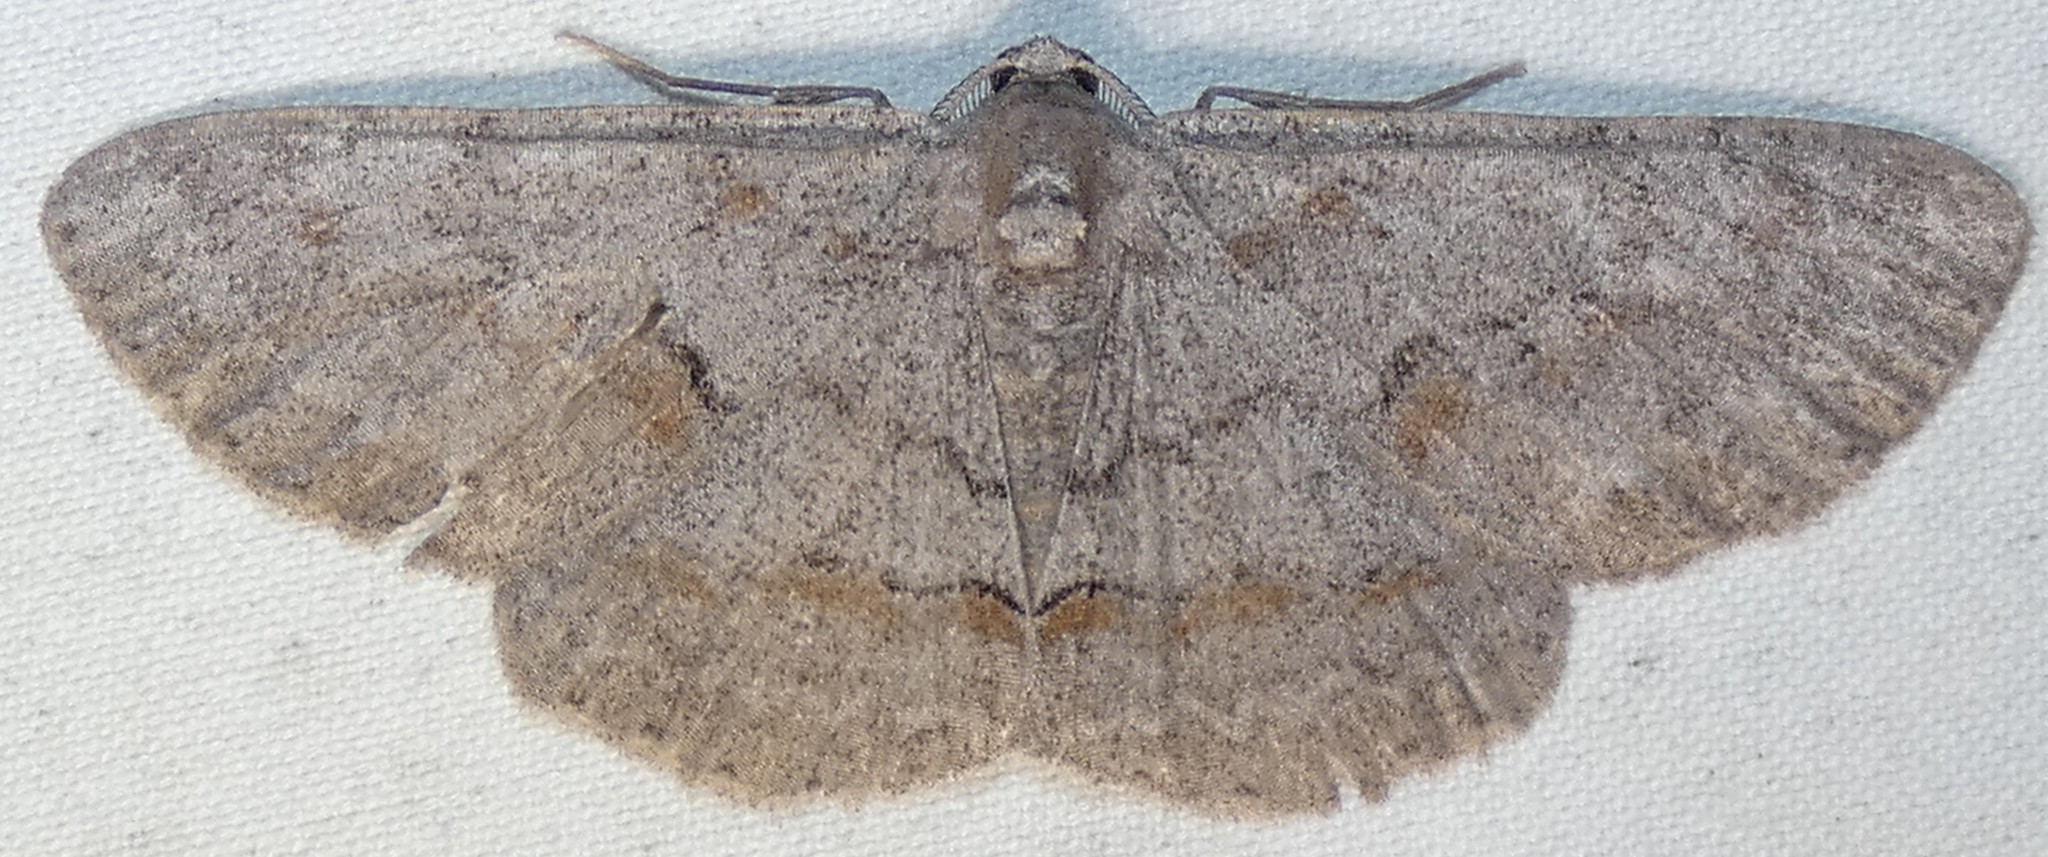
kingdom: Animalia
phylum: Arthropoda
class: Insecta
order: Lepidoptera
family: Geometridae
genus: Iridopsis
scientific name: Iridopsis vellivolata
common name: Large purplish gray
